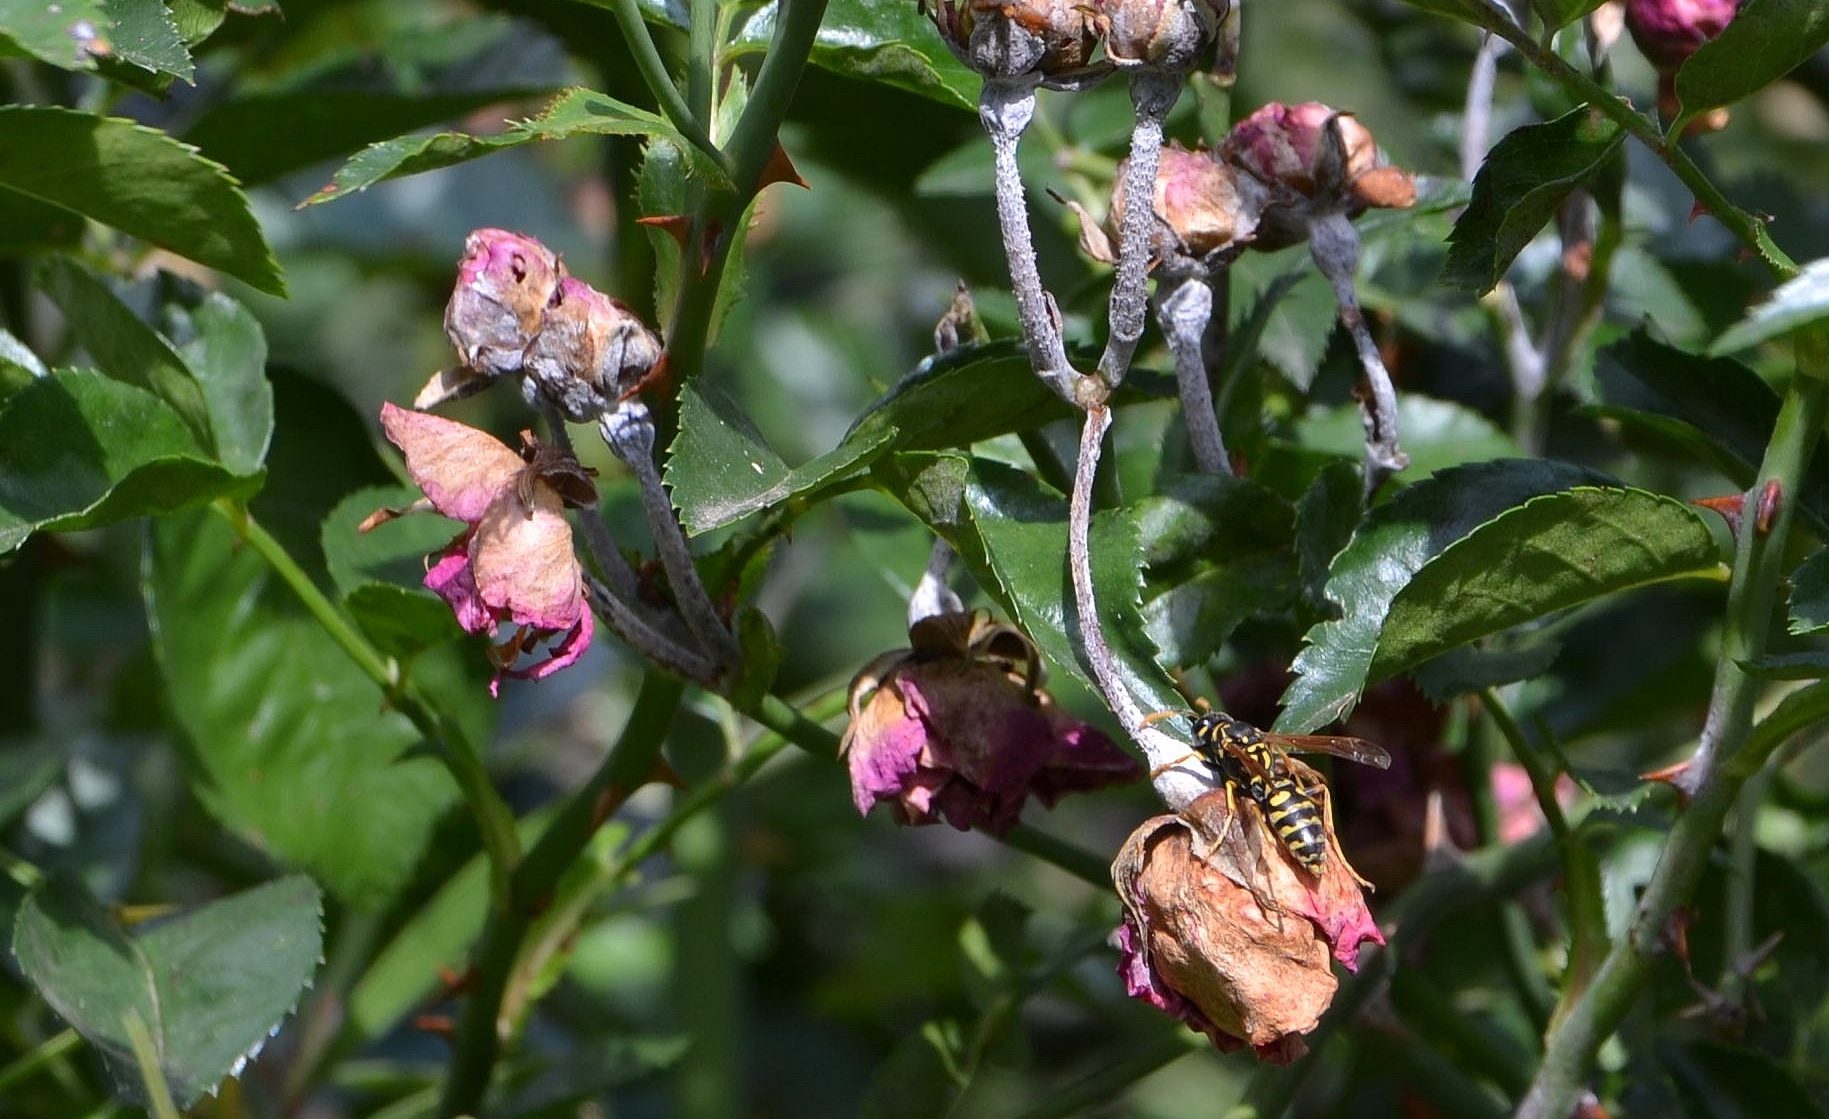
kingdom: Animalia
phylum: Arthropoda
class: Insecta
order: Hymenoptera
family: Eumenidae
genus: Polistes
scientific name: Polistes dominula
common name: Paper wasp
